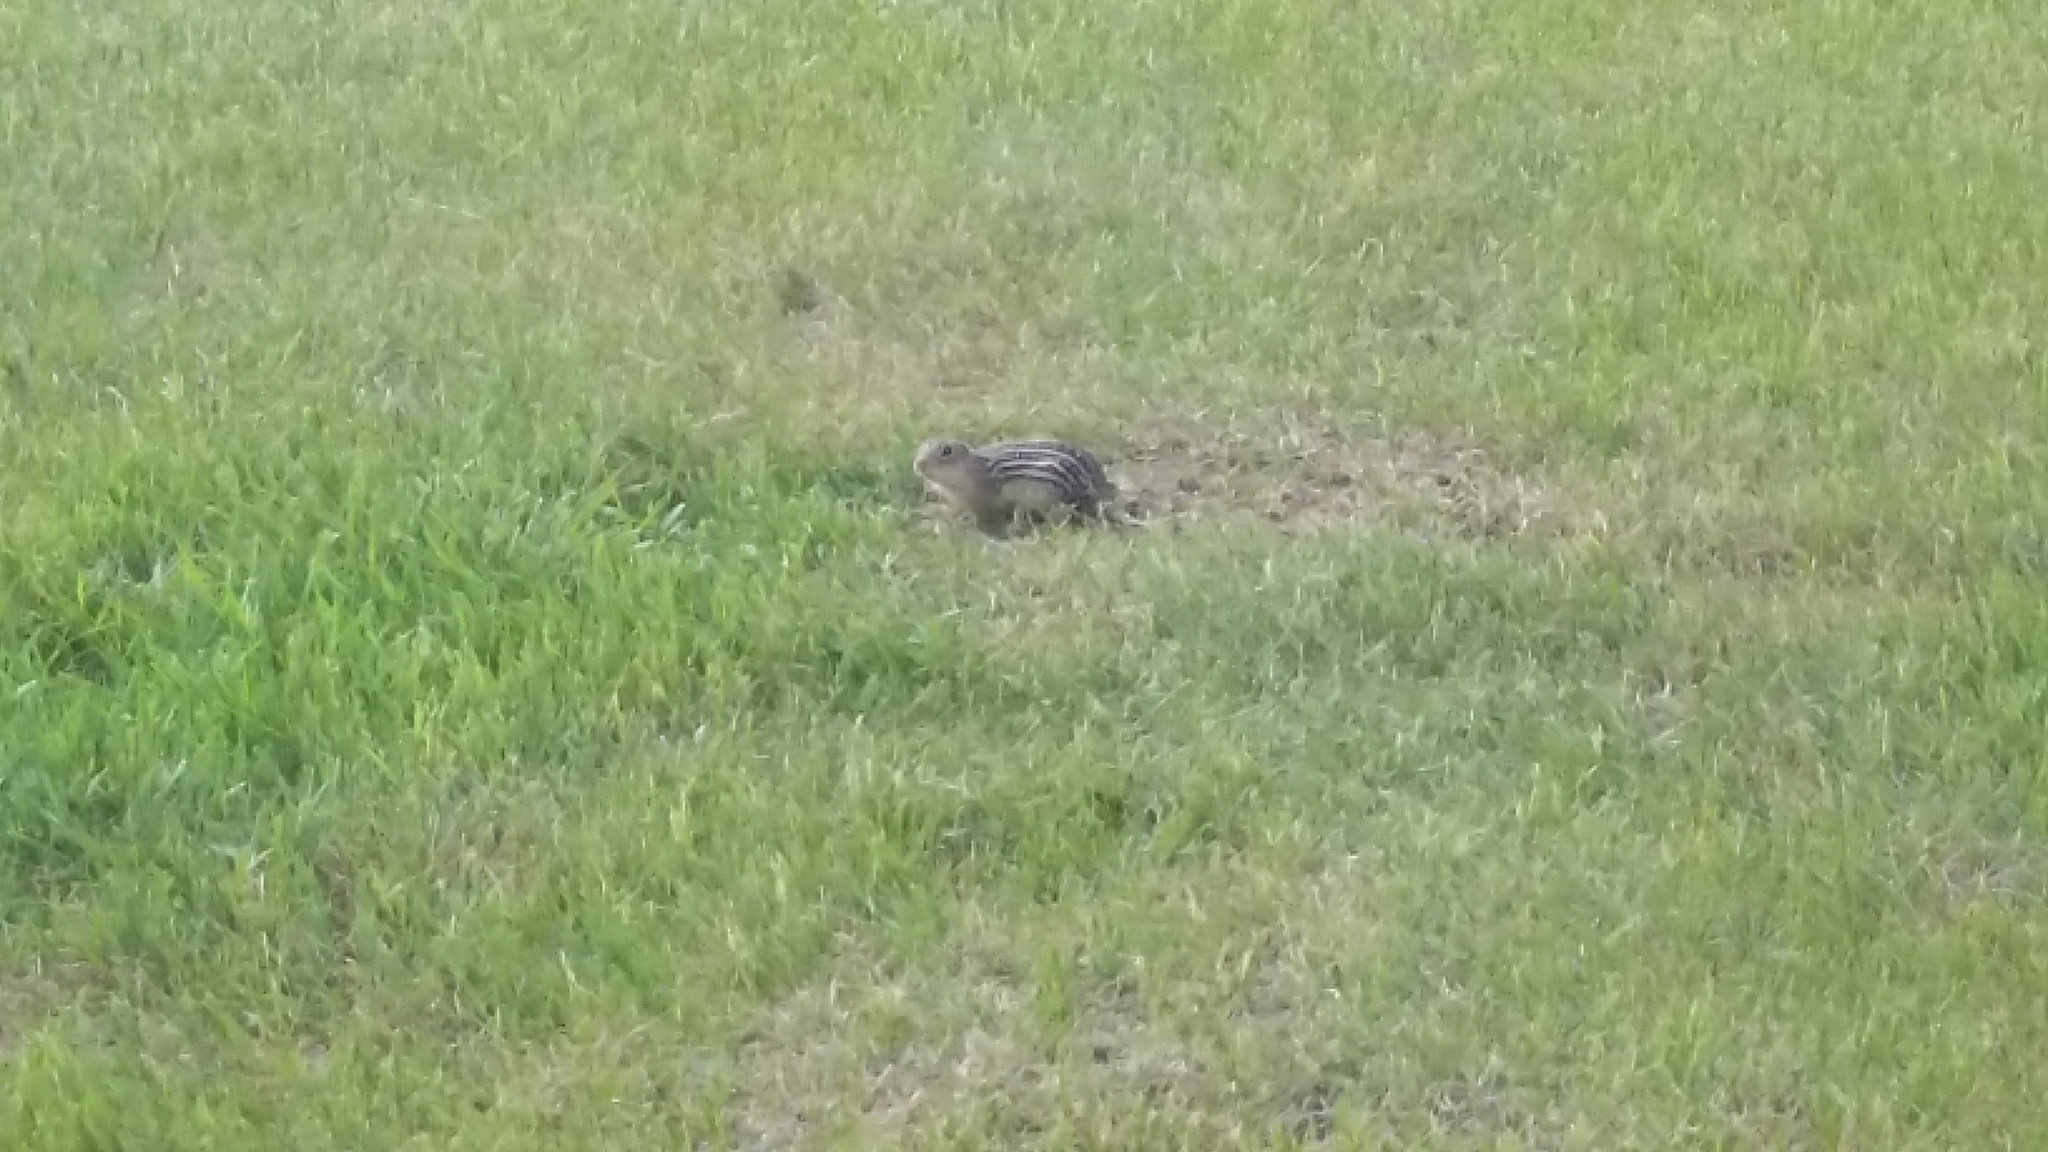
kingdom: Animalia
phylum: Chordata
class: Mammalia
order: Rodentia
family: Sciuridae
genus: Ictidomys
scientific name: Ictidomys tridecemlineatus
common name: Thirteen-lined ground squirrel
